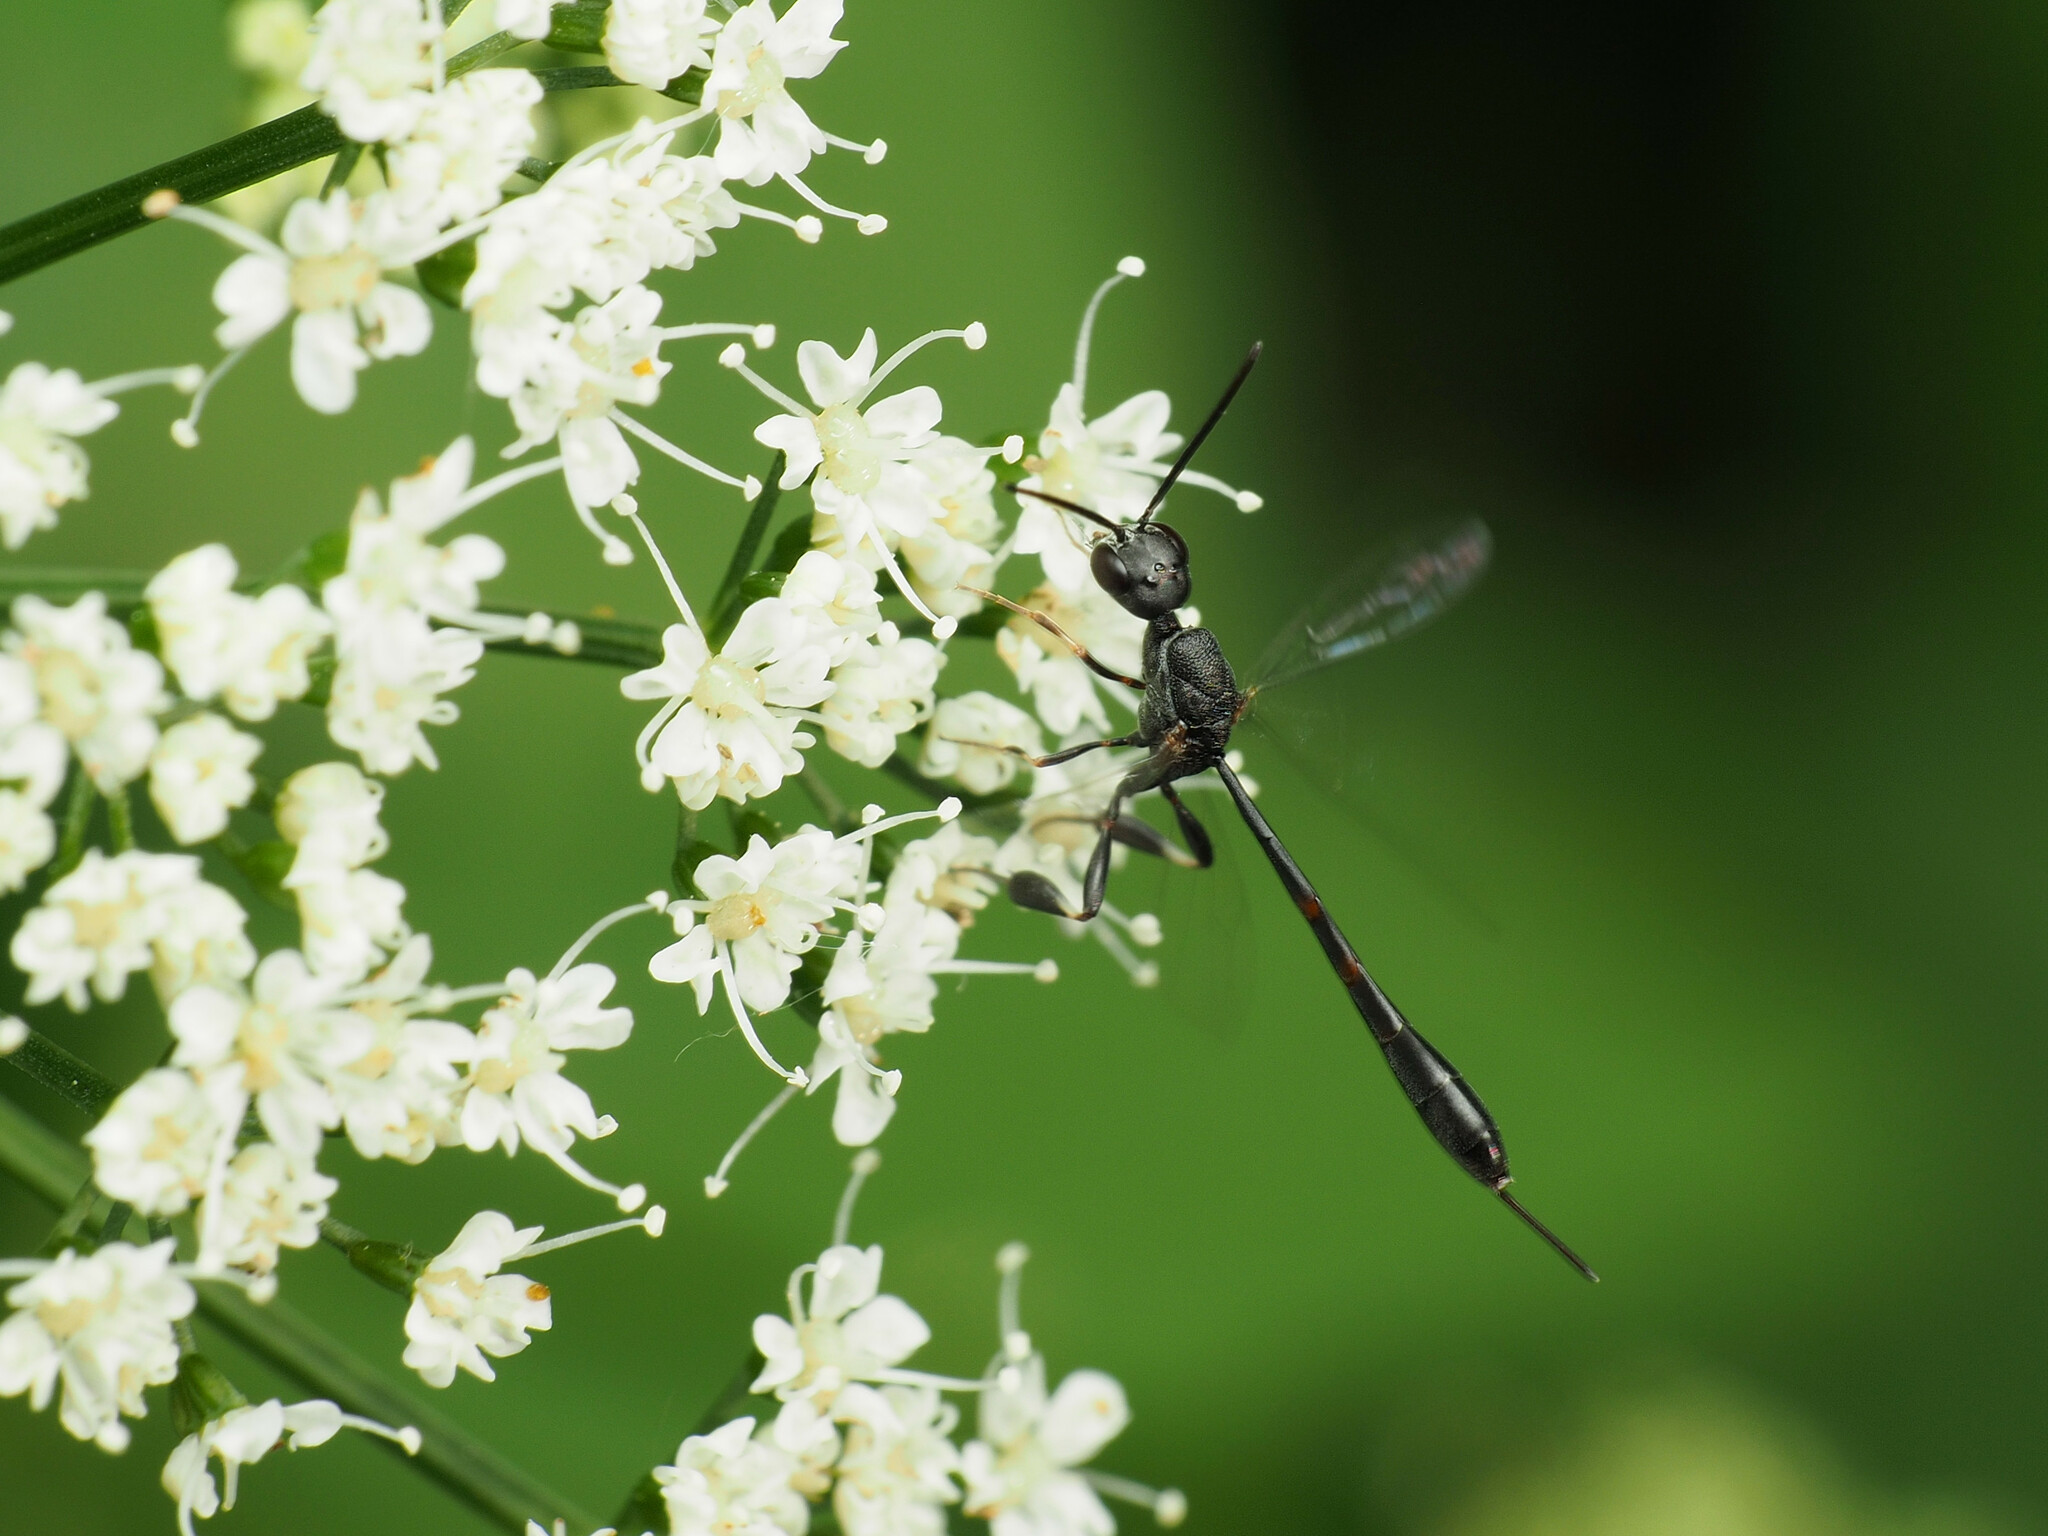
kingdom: Animalia
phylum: Arthropoda
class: Insecta
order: Hymenoptera
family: Gasteruptiidae
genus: Gasteruption
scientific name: Gasteruption assectator
